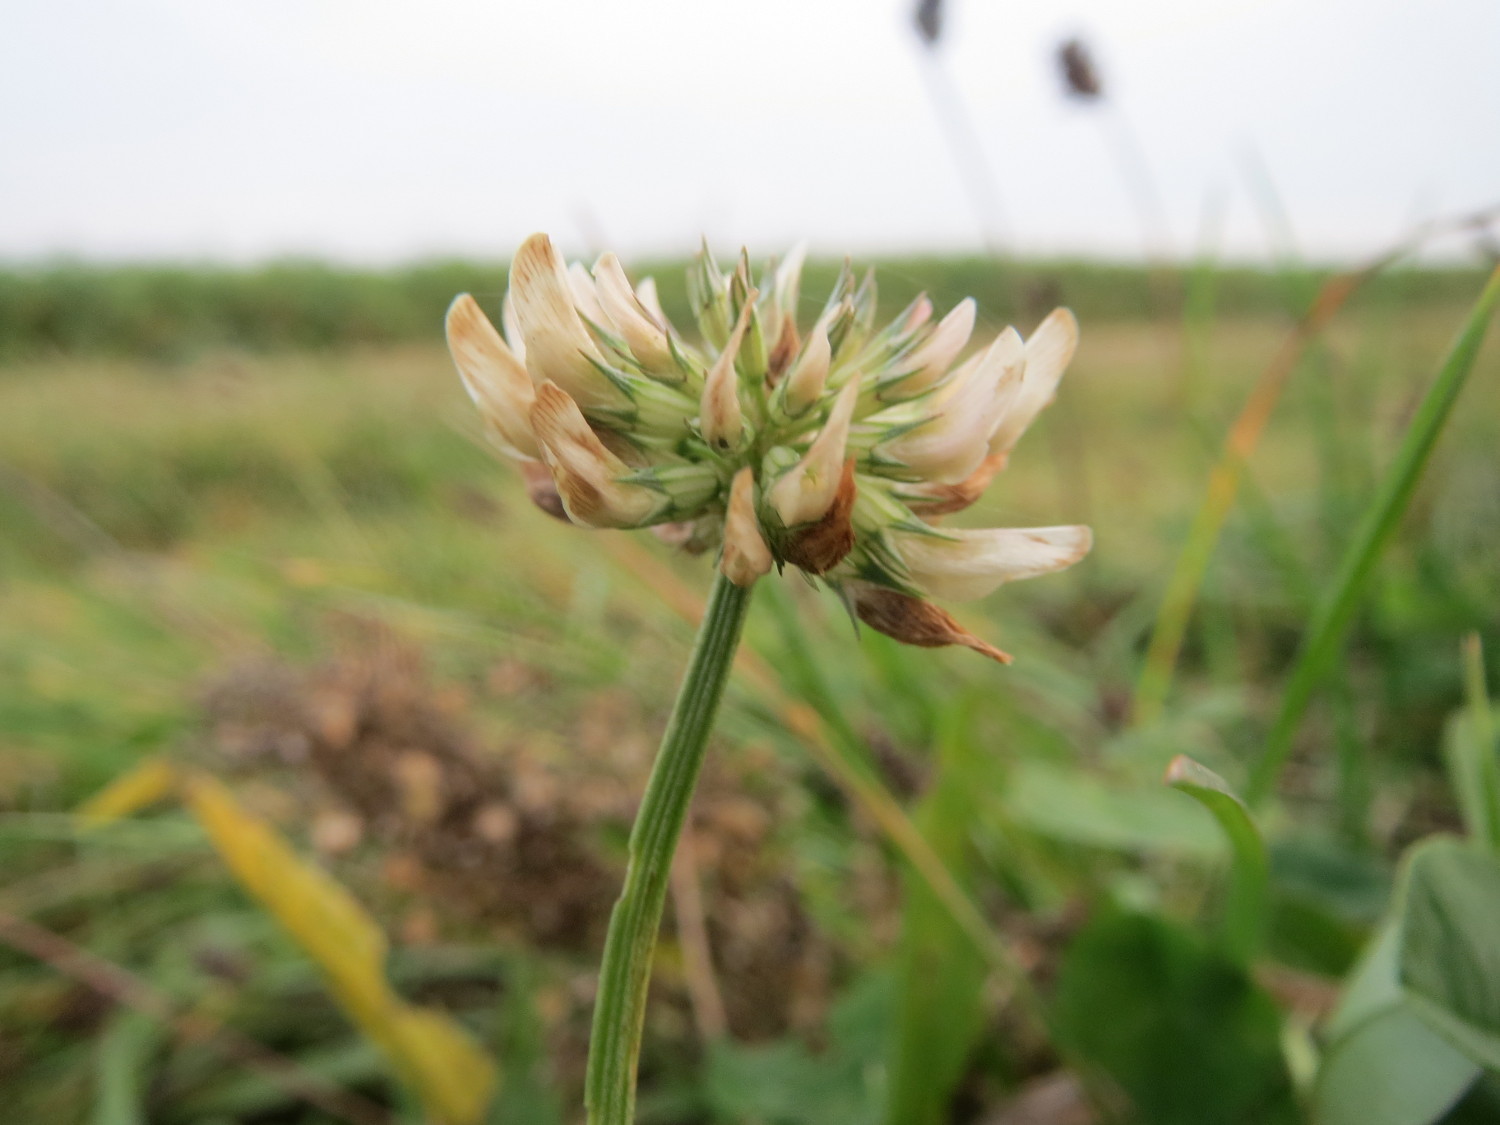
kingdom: Plantae
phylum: Tracheophyta
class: Magnoliopsida
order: Fabales
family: Fabaceae
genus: Trifolium
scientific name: Trifolium repens
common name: White clover
